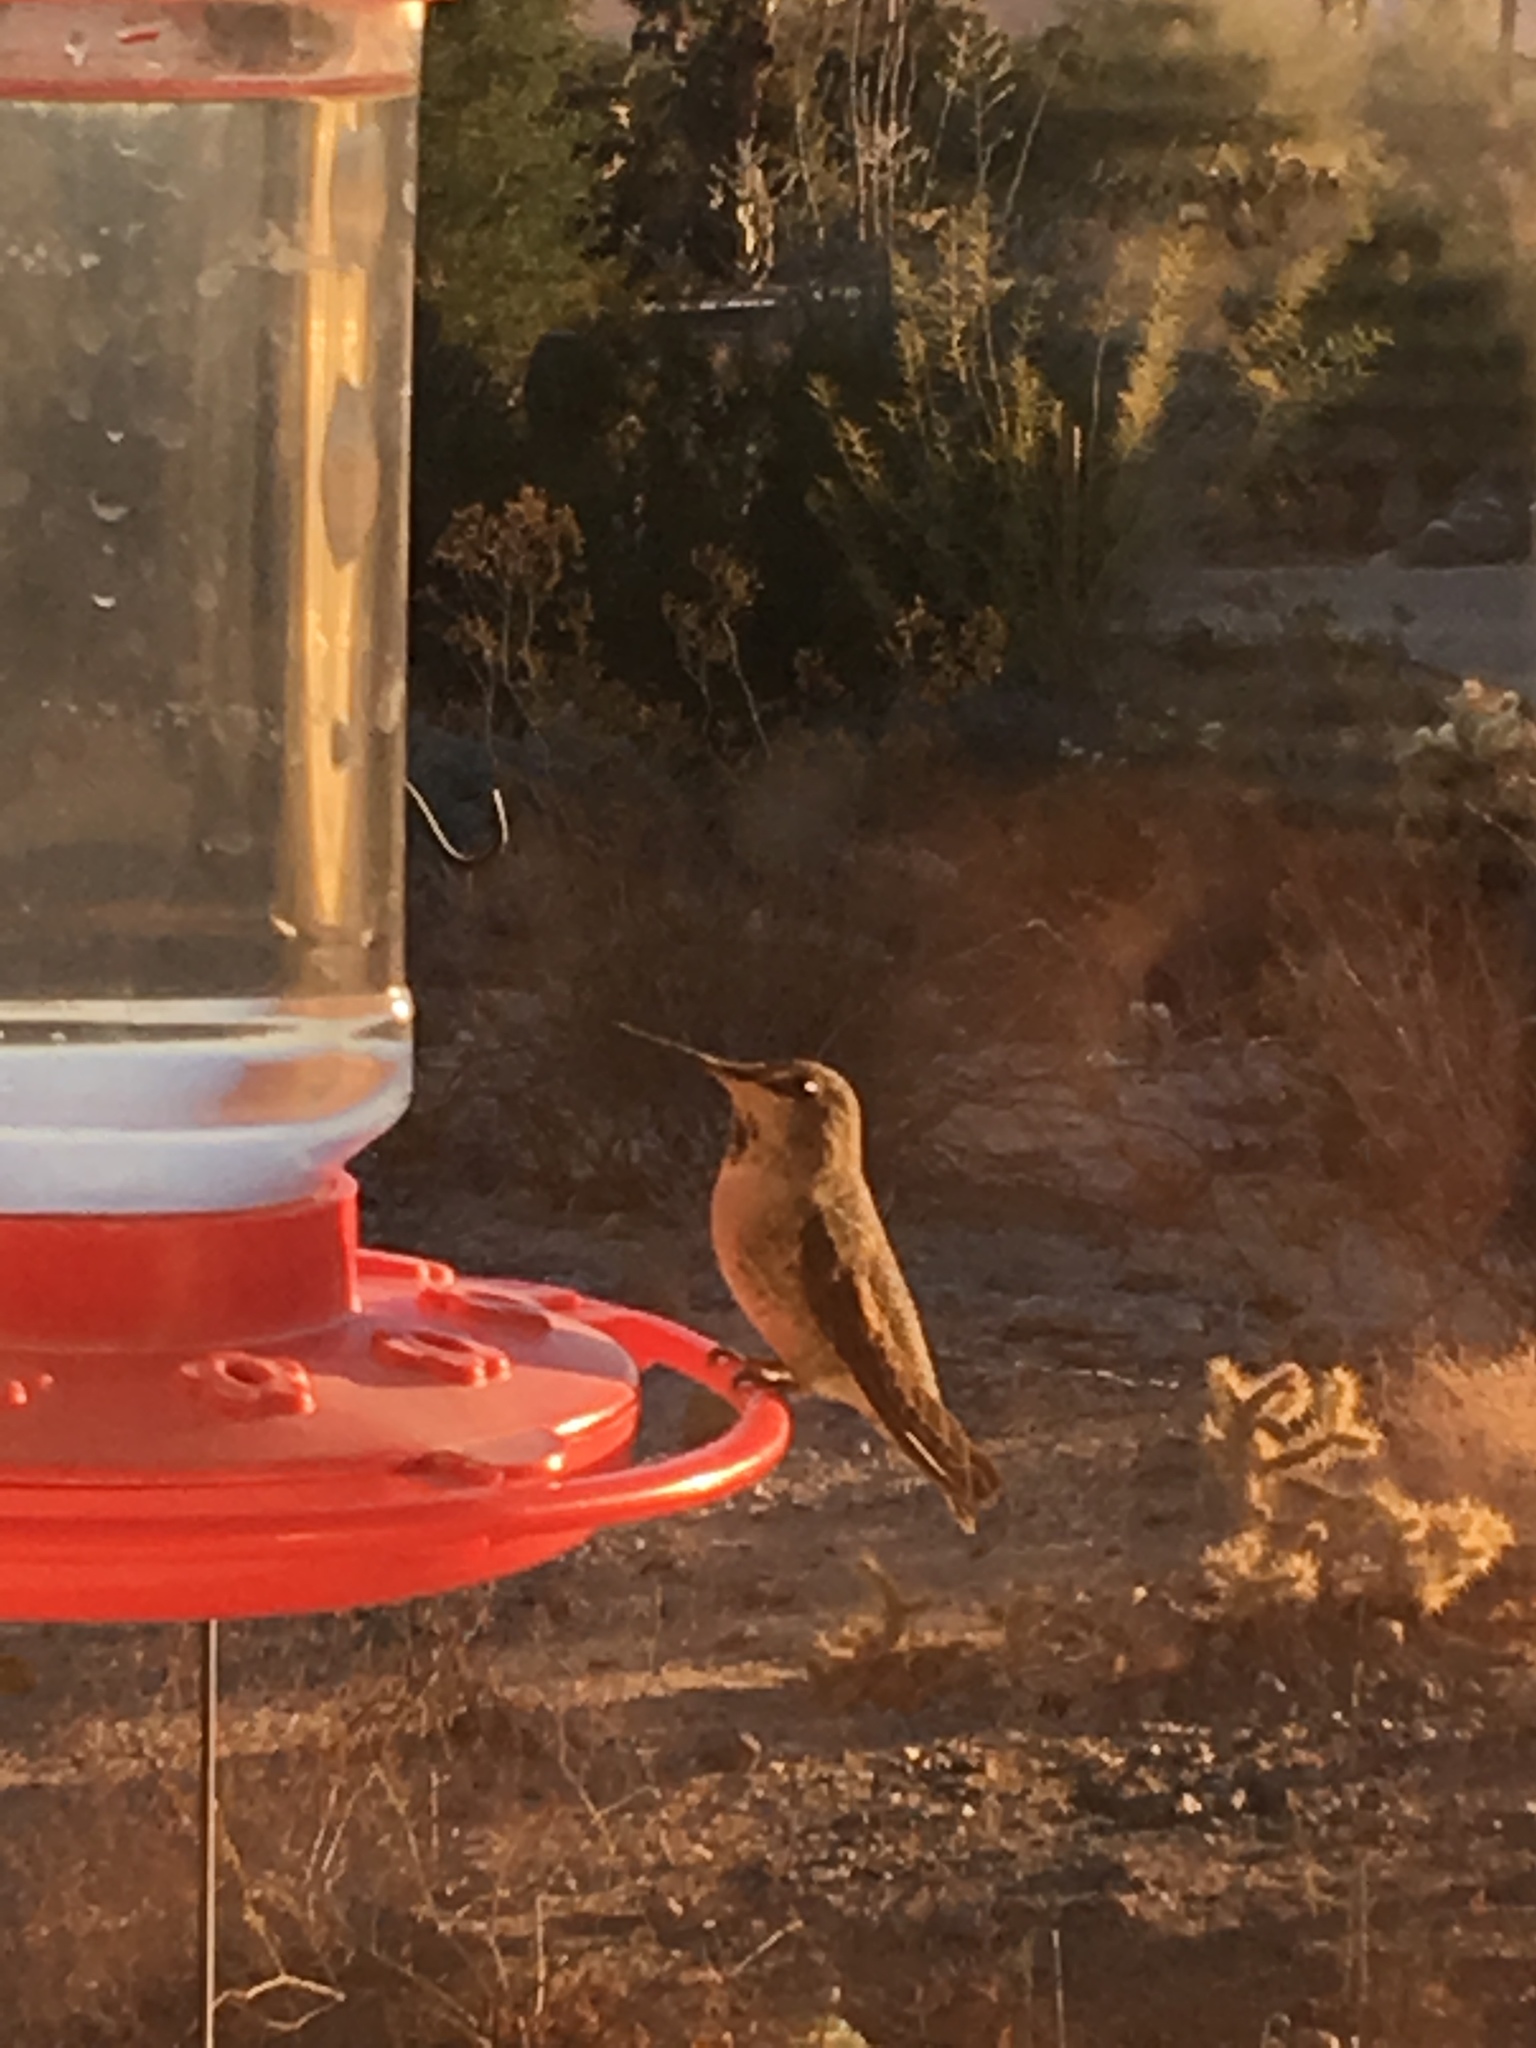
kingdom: Animalia
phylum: Chordata
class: Aves
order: Apodiformes
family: Trochilidae
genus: Calypte
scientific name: Calypte anna
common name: Anna's hummingbird
